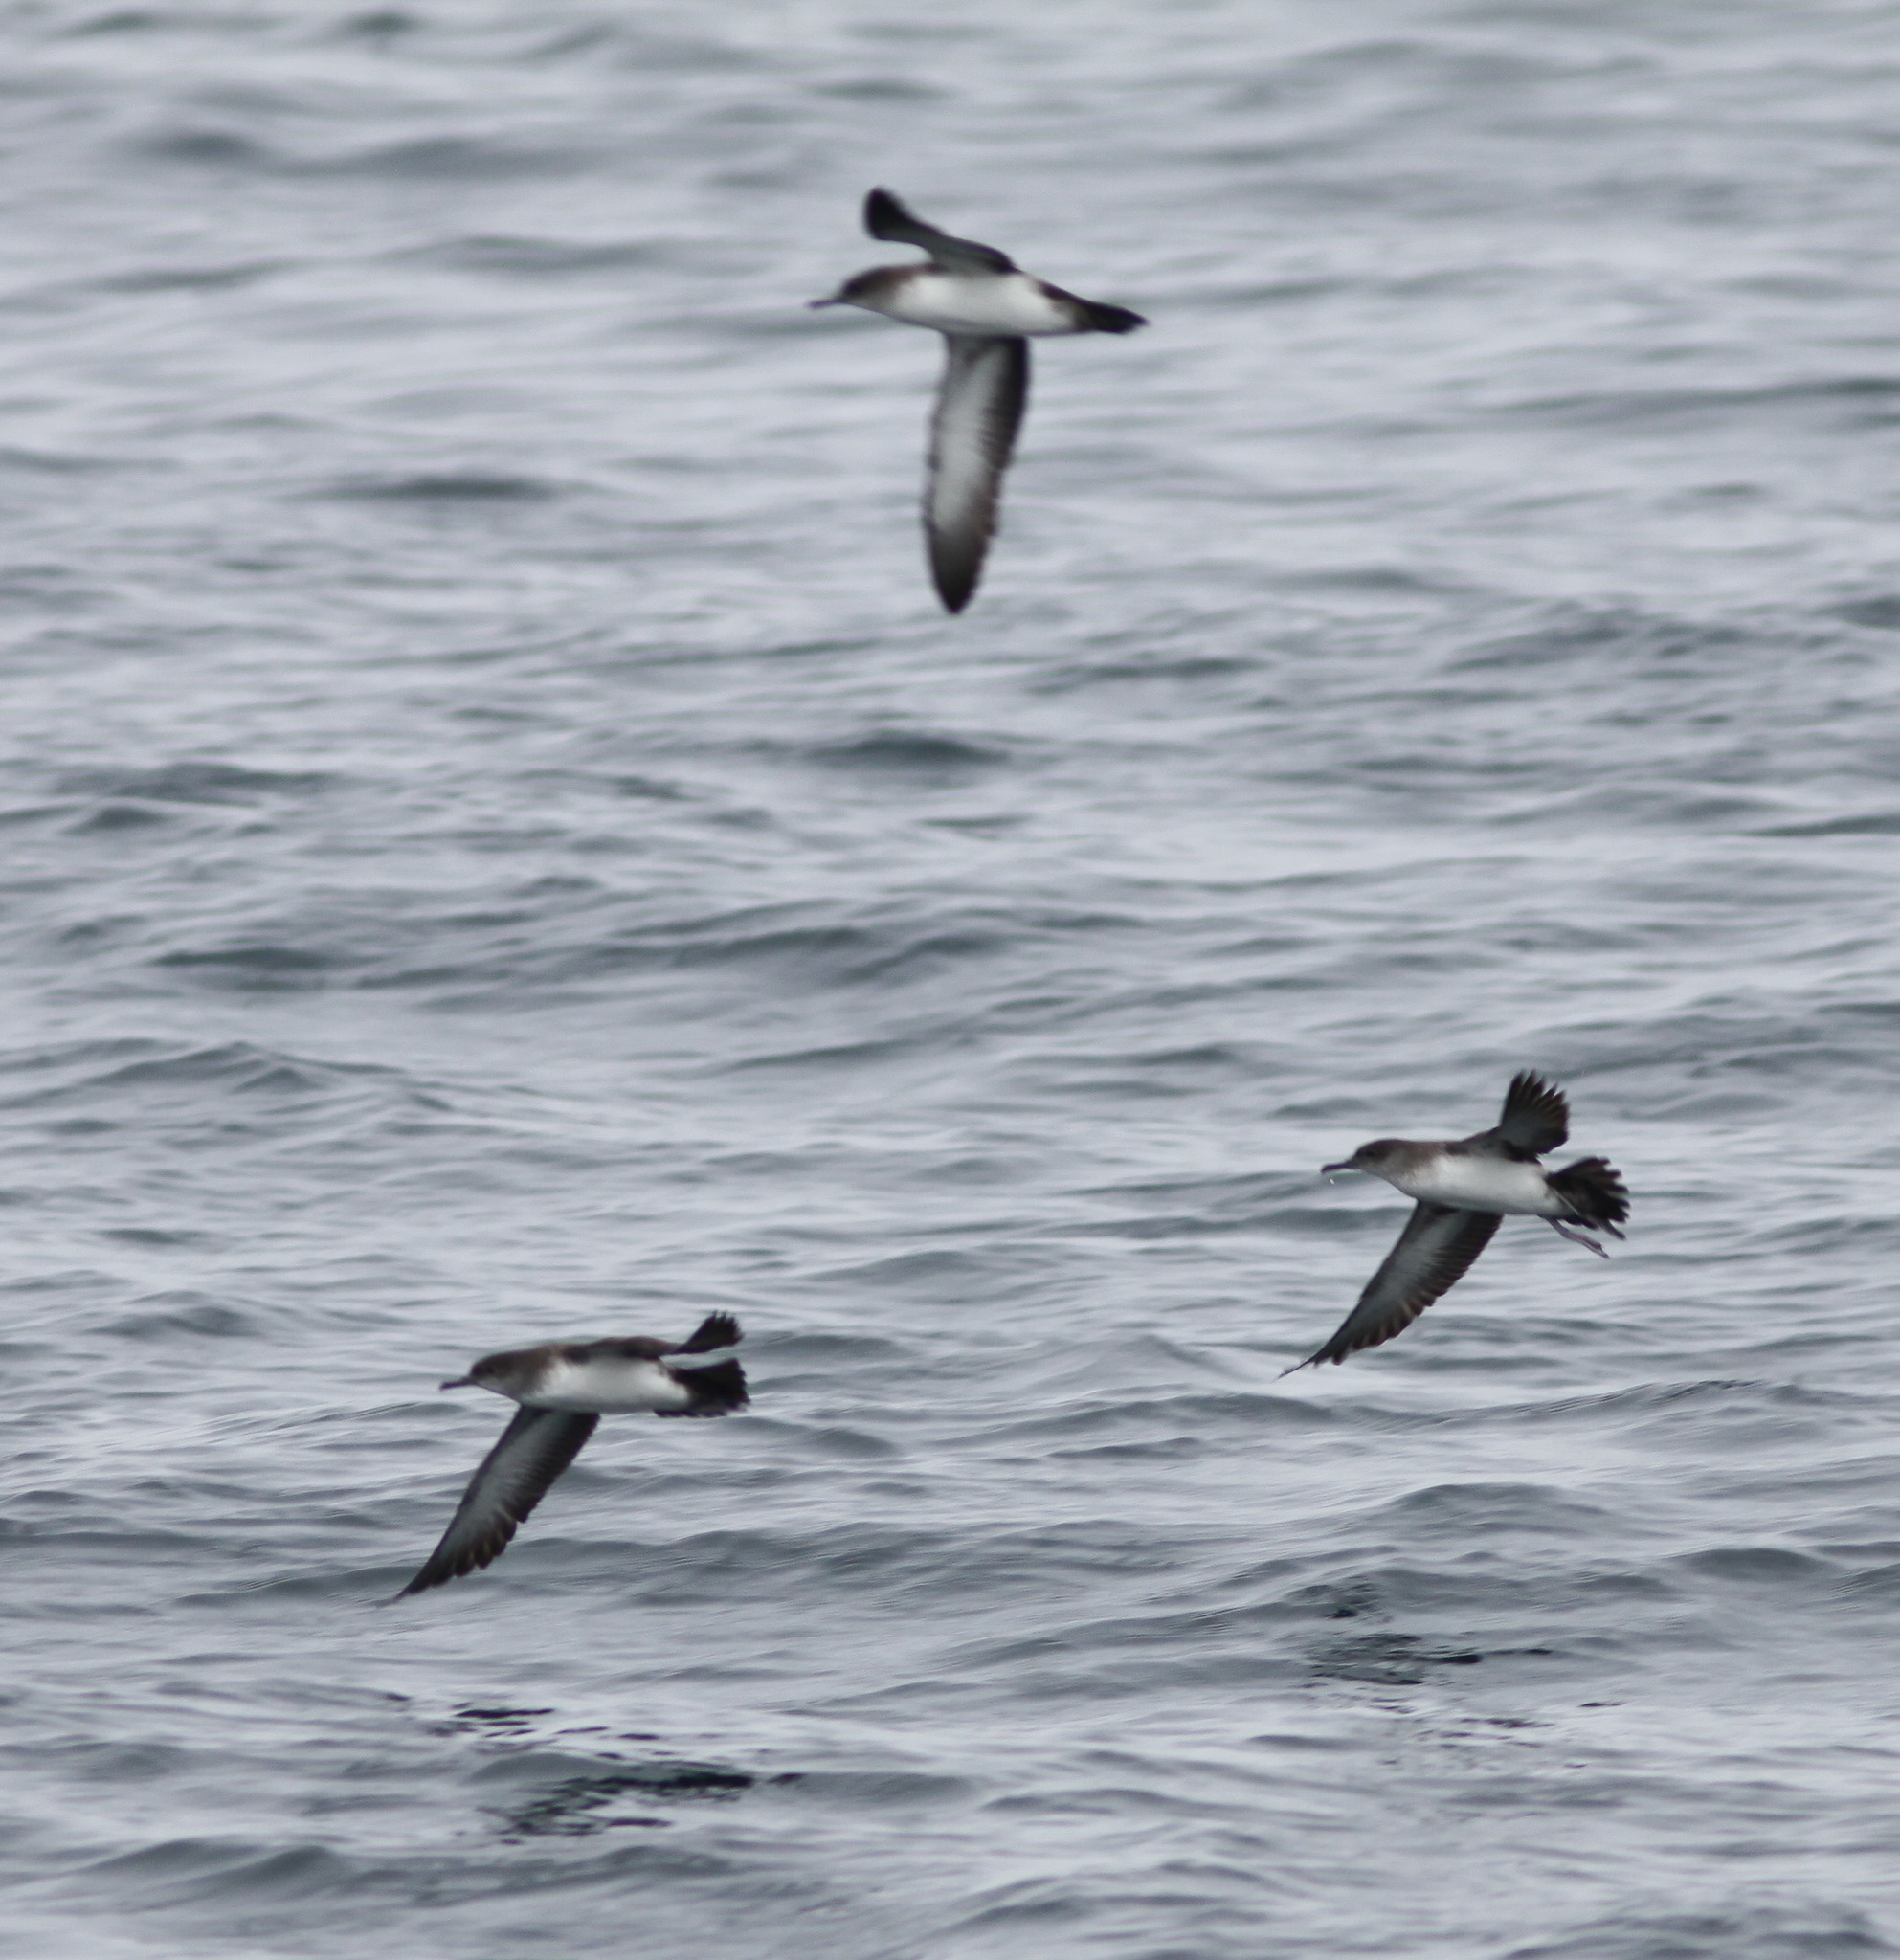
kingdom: Animalia
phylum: Chordata
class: Aves
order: Procellariiformes
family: Procellariidae
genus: Puffinus
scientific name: Puffinus opisthomelas
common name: Black-vented shearwater
